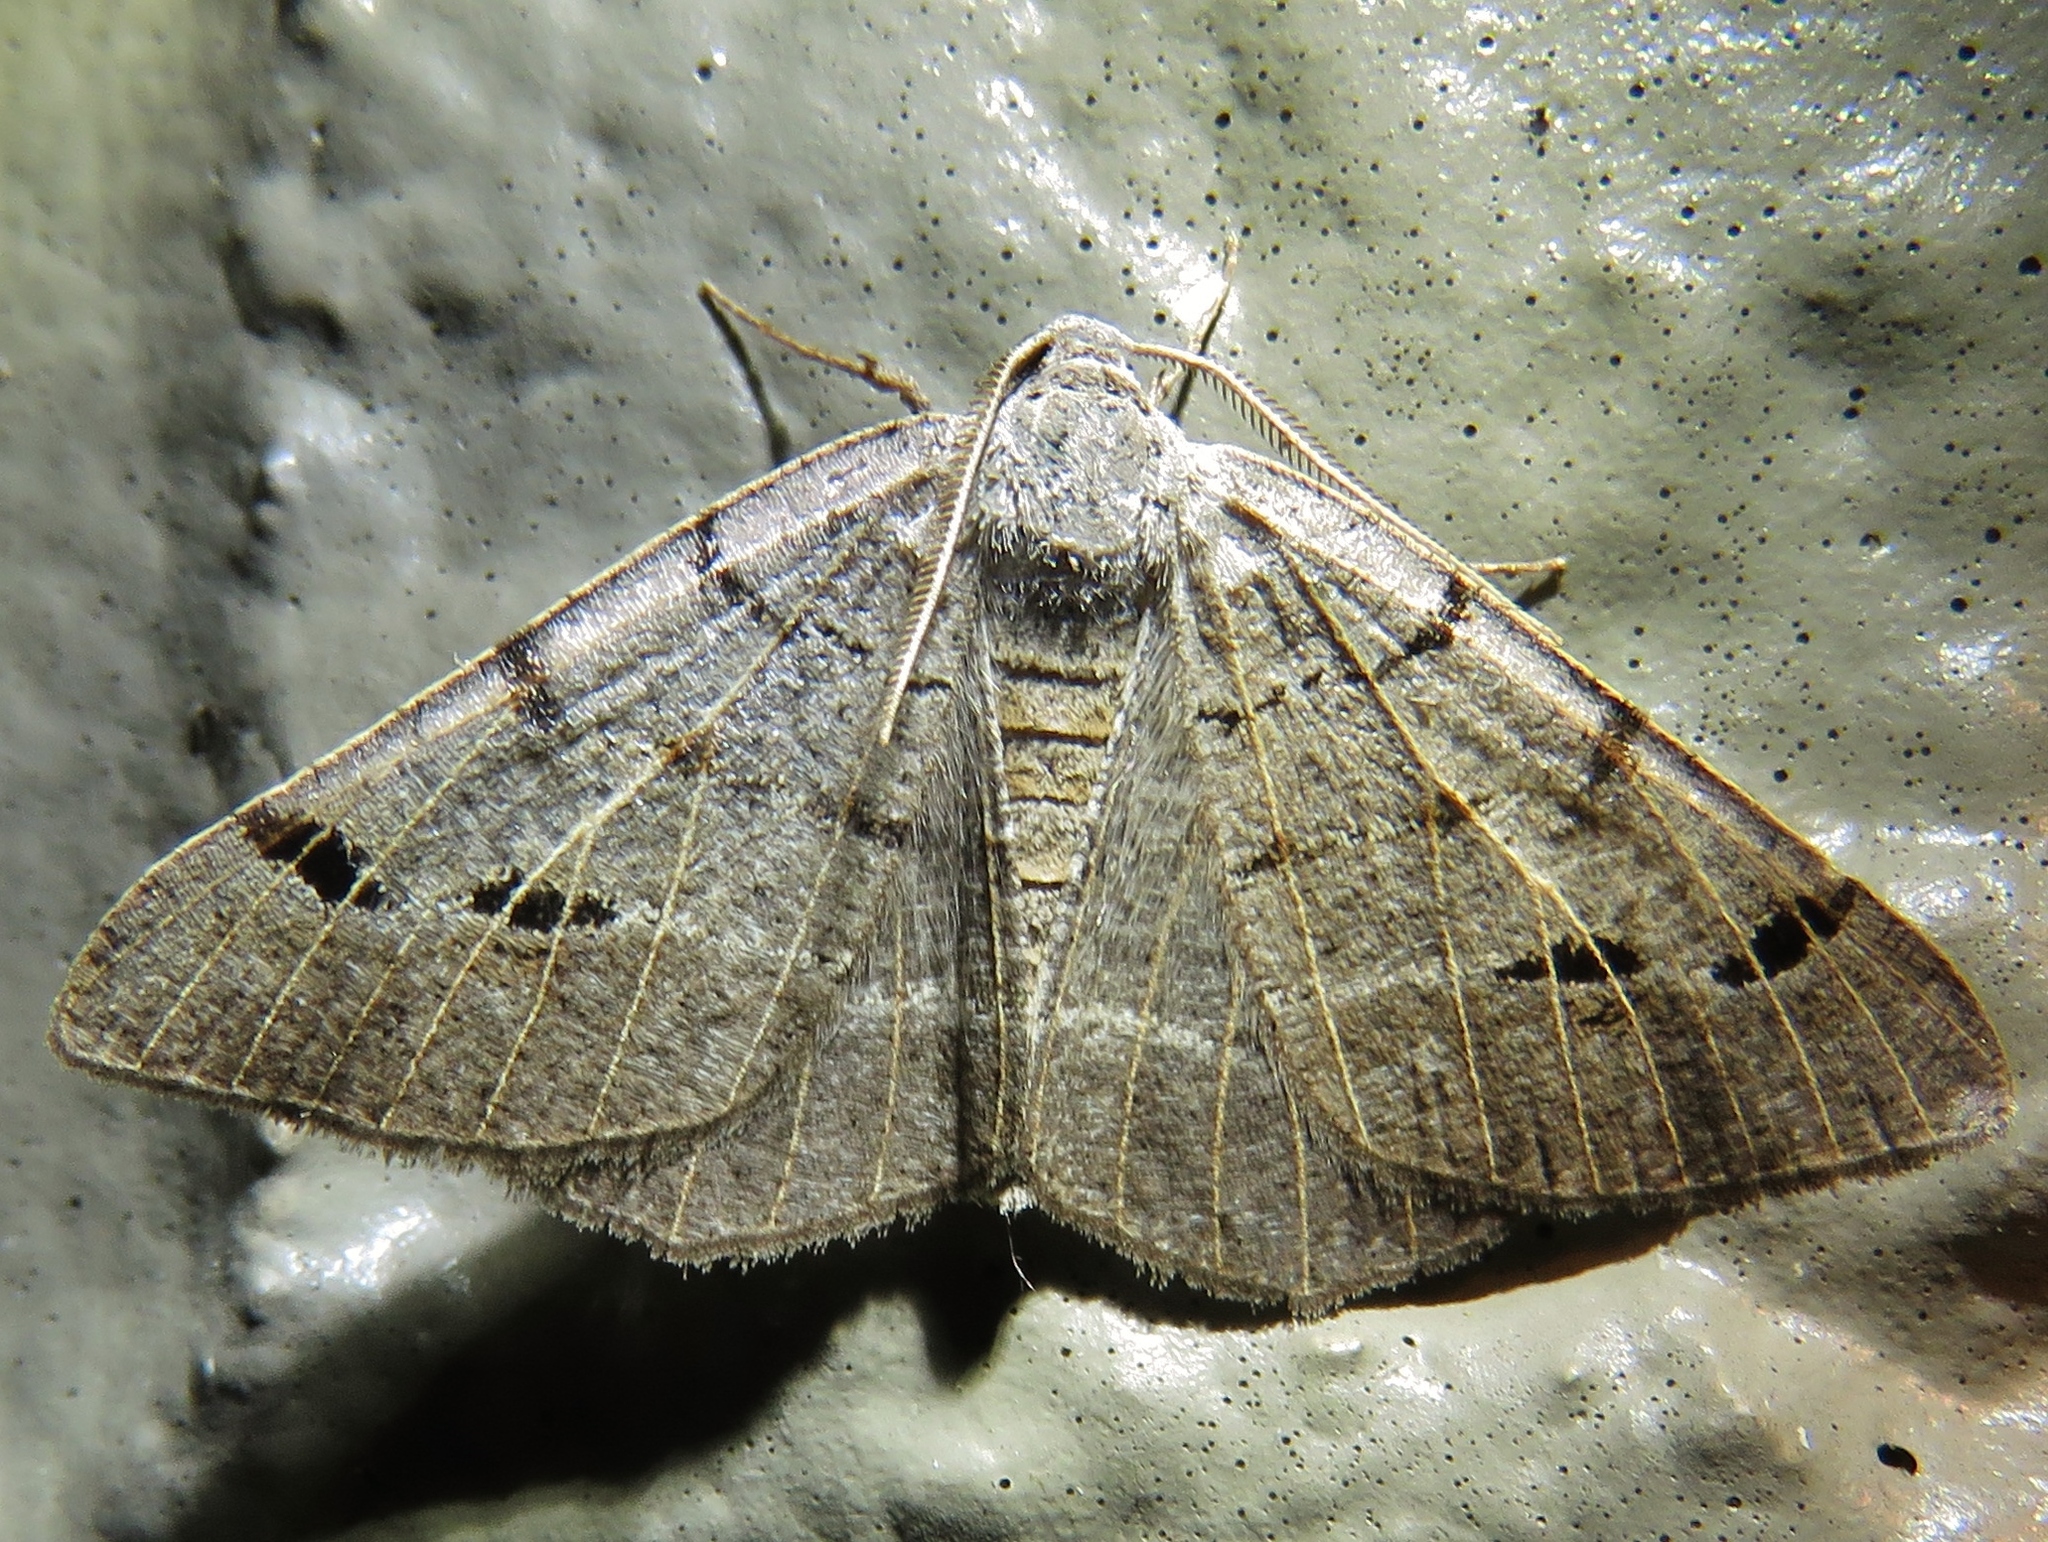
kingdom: Animalia
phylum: Arthropoda
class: Insecta
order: Lepidoptera
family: Geometridae
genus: Isturgia
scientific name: Isturgia dislocaria
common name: Pale-viened enconista
